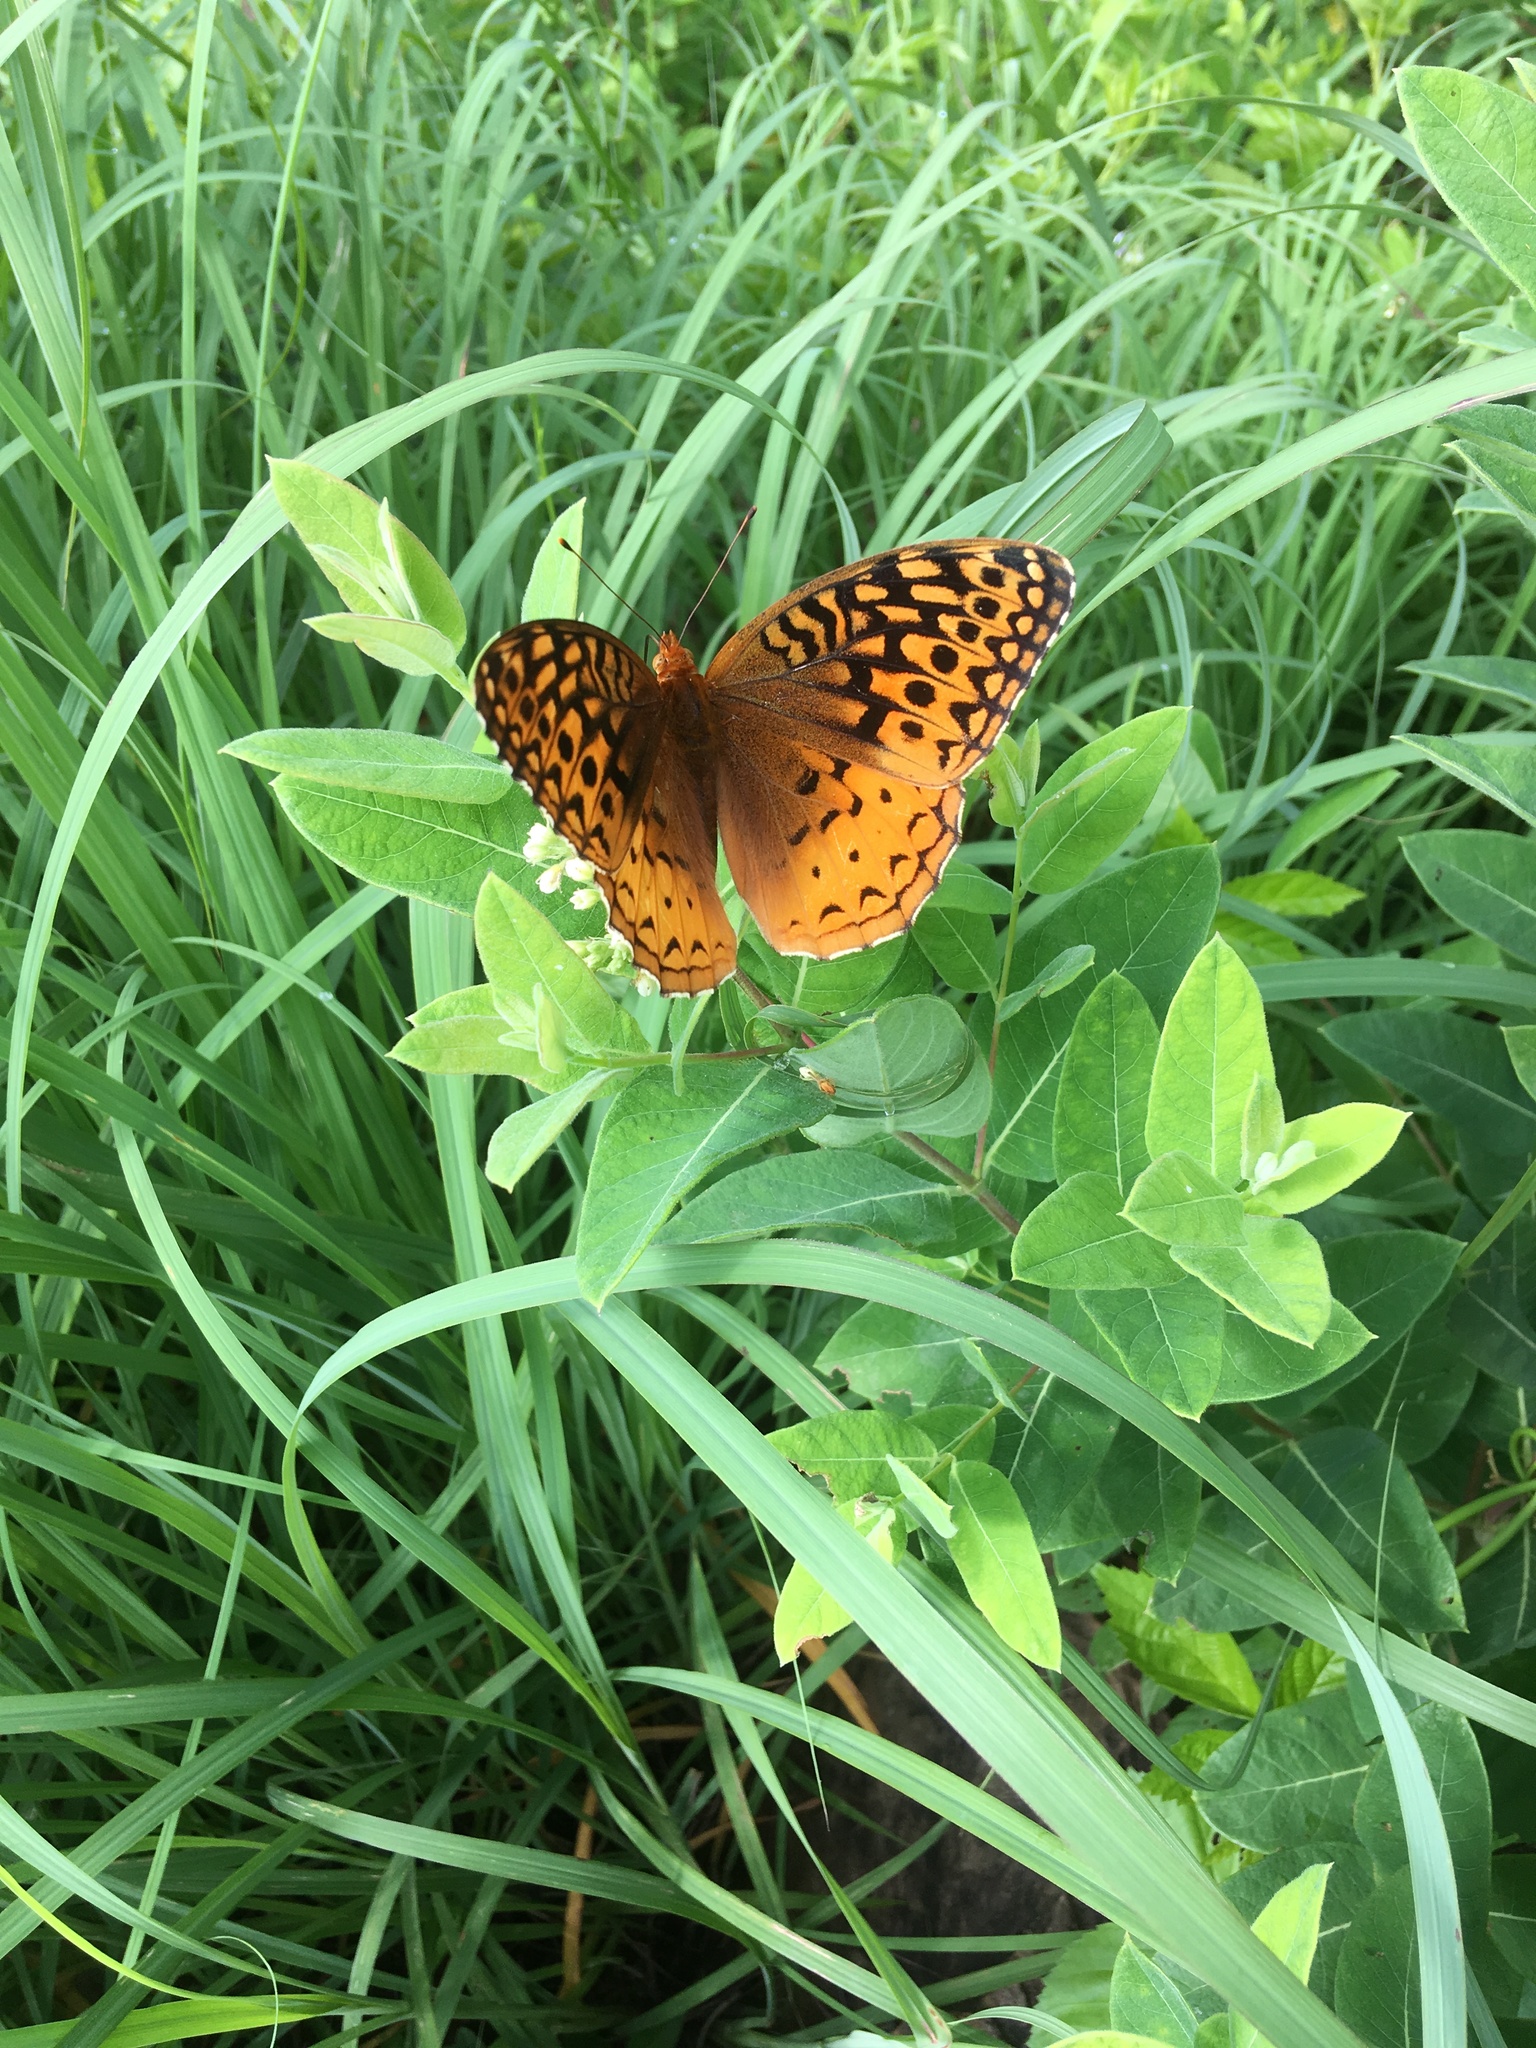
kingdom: Animalia
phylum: Arthropoda
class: Insecta
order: Lepidoptera
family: Nymphalidae
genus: Speyeria
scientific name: Speyeria cybele
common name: Great spangled fritillary
